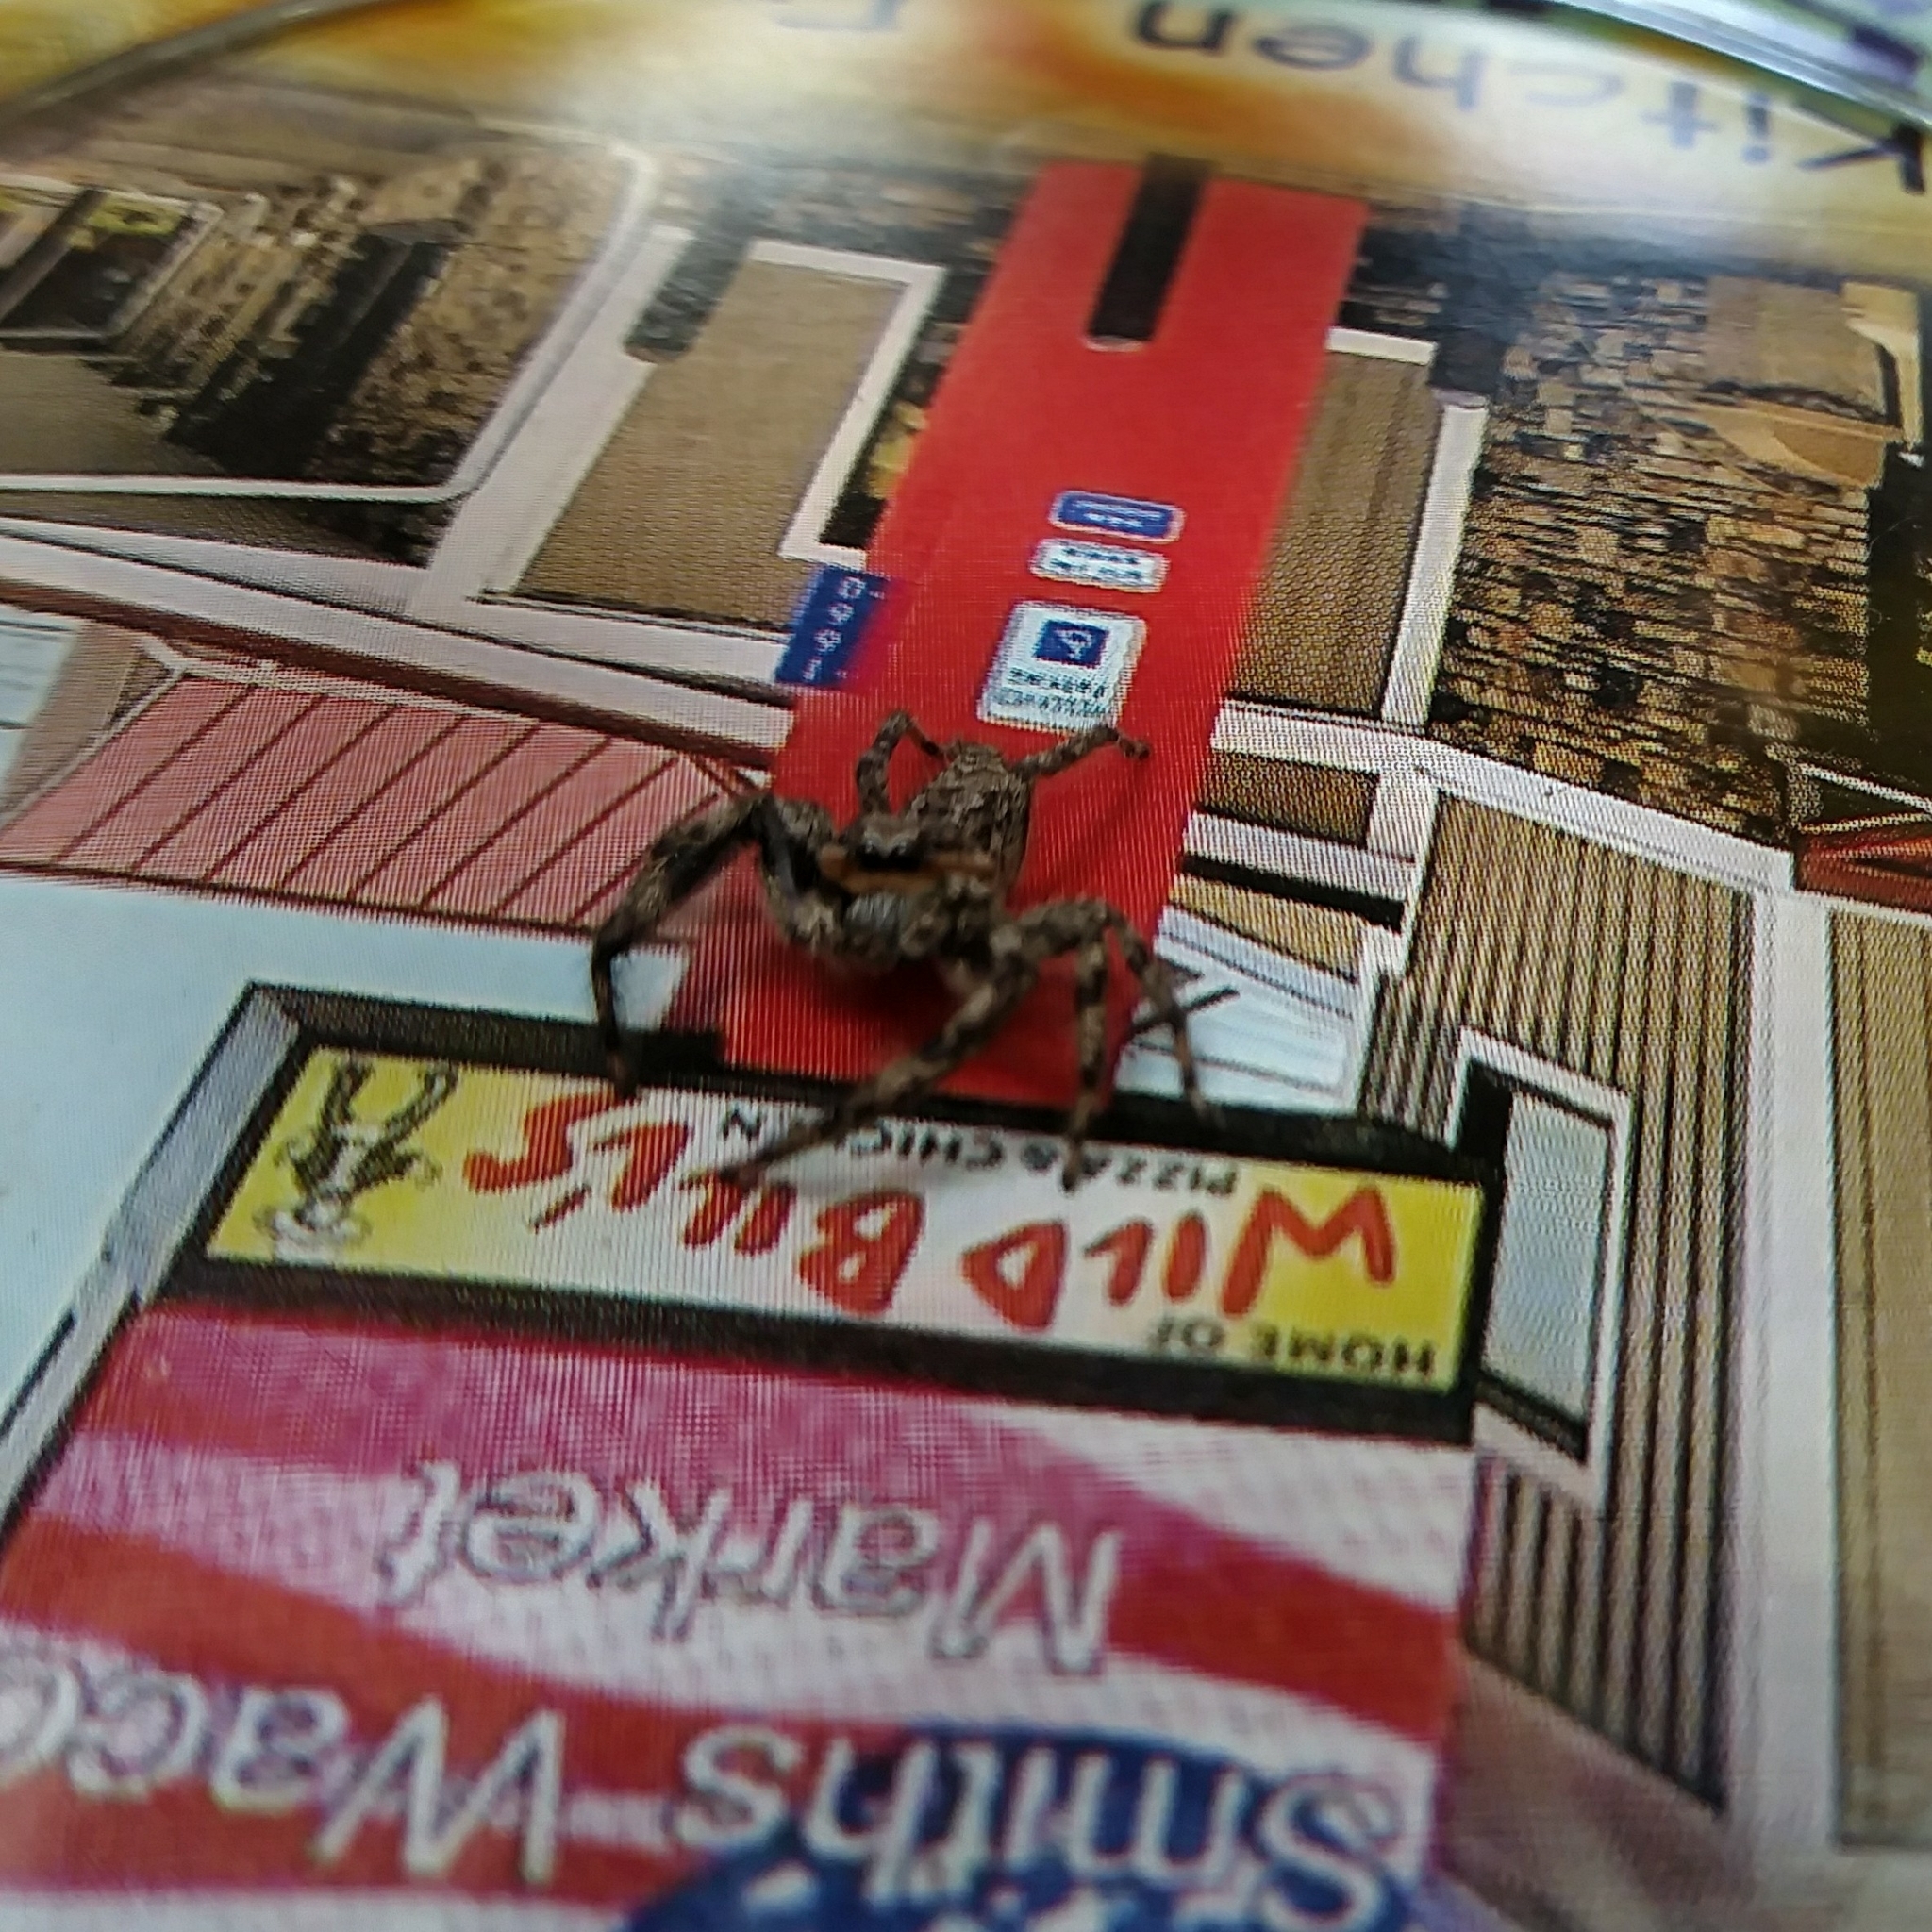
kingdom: Animalia
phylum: Arthropoda
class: Arachnida
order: Araneae
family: Salticidae
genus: Platycryptus
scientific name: Platycryptus undatus
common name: Tan jumping spider
